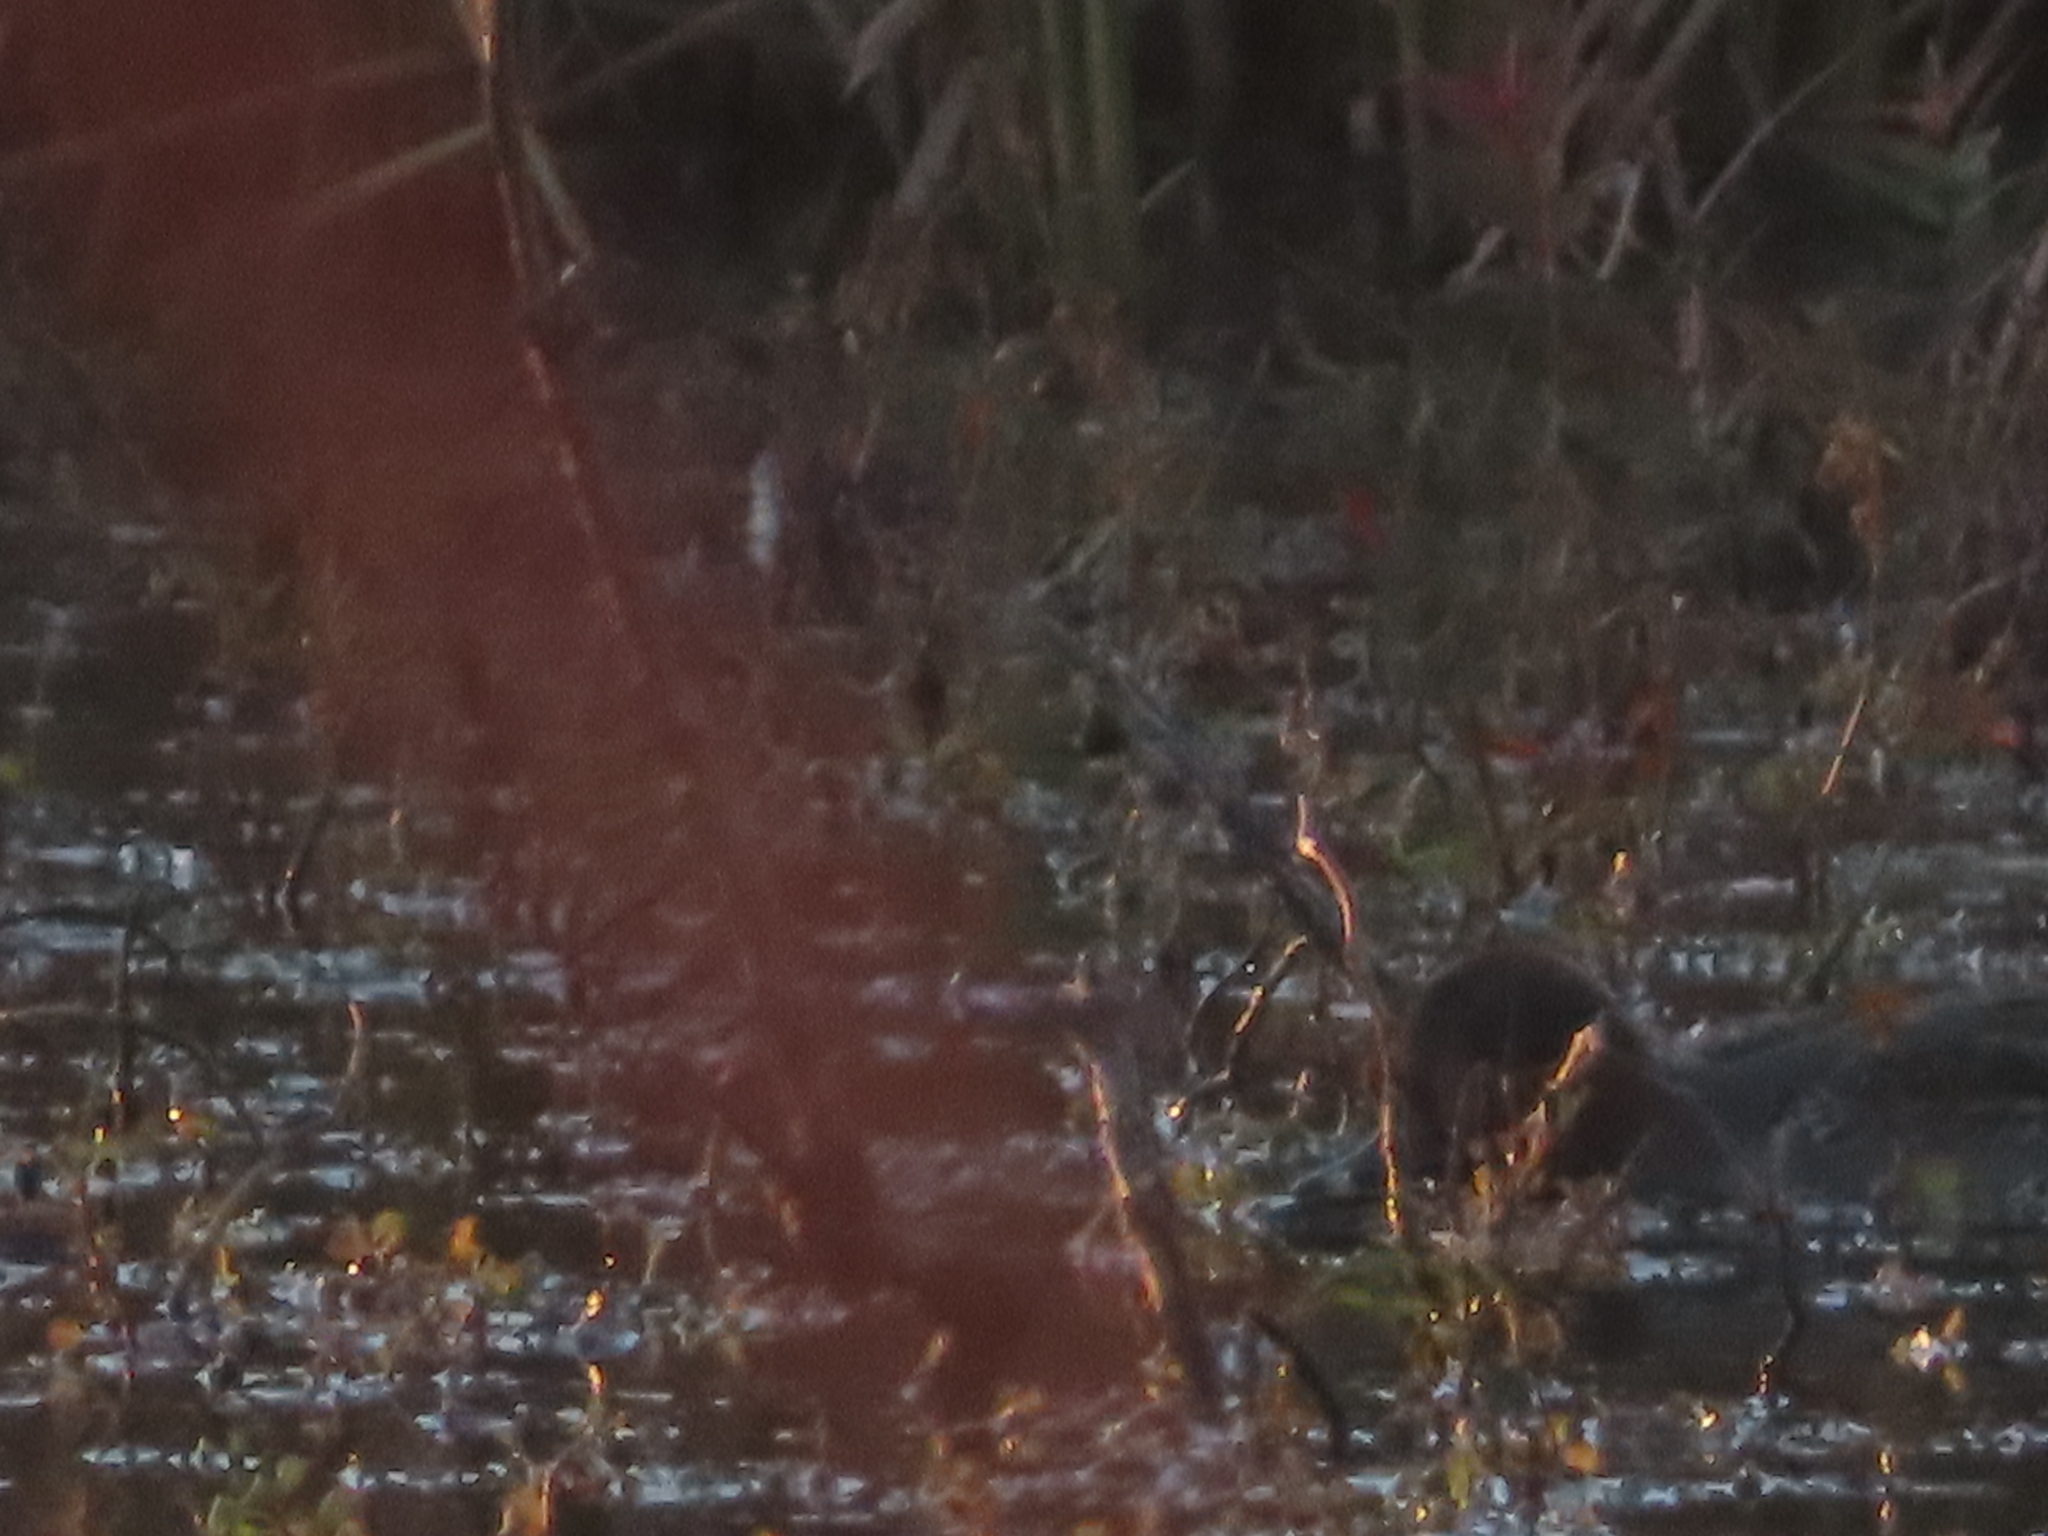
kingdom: Animalia
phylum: Chordata
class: Aves
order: Anseriformes
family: Anatidae
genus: Anas
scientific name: Anas crecca
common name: Eurasian teal
